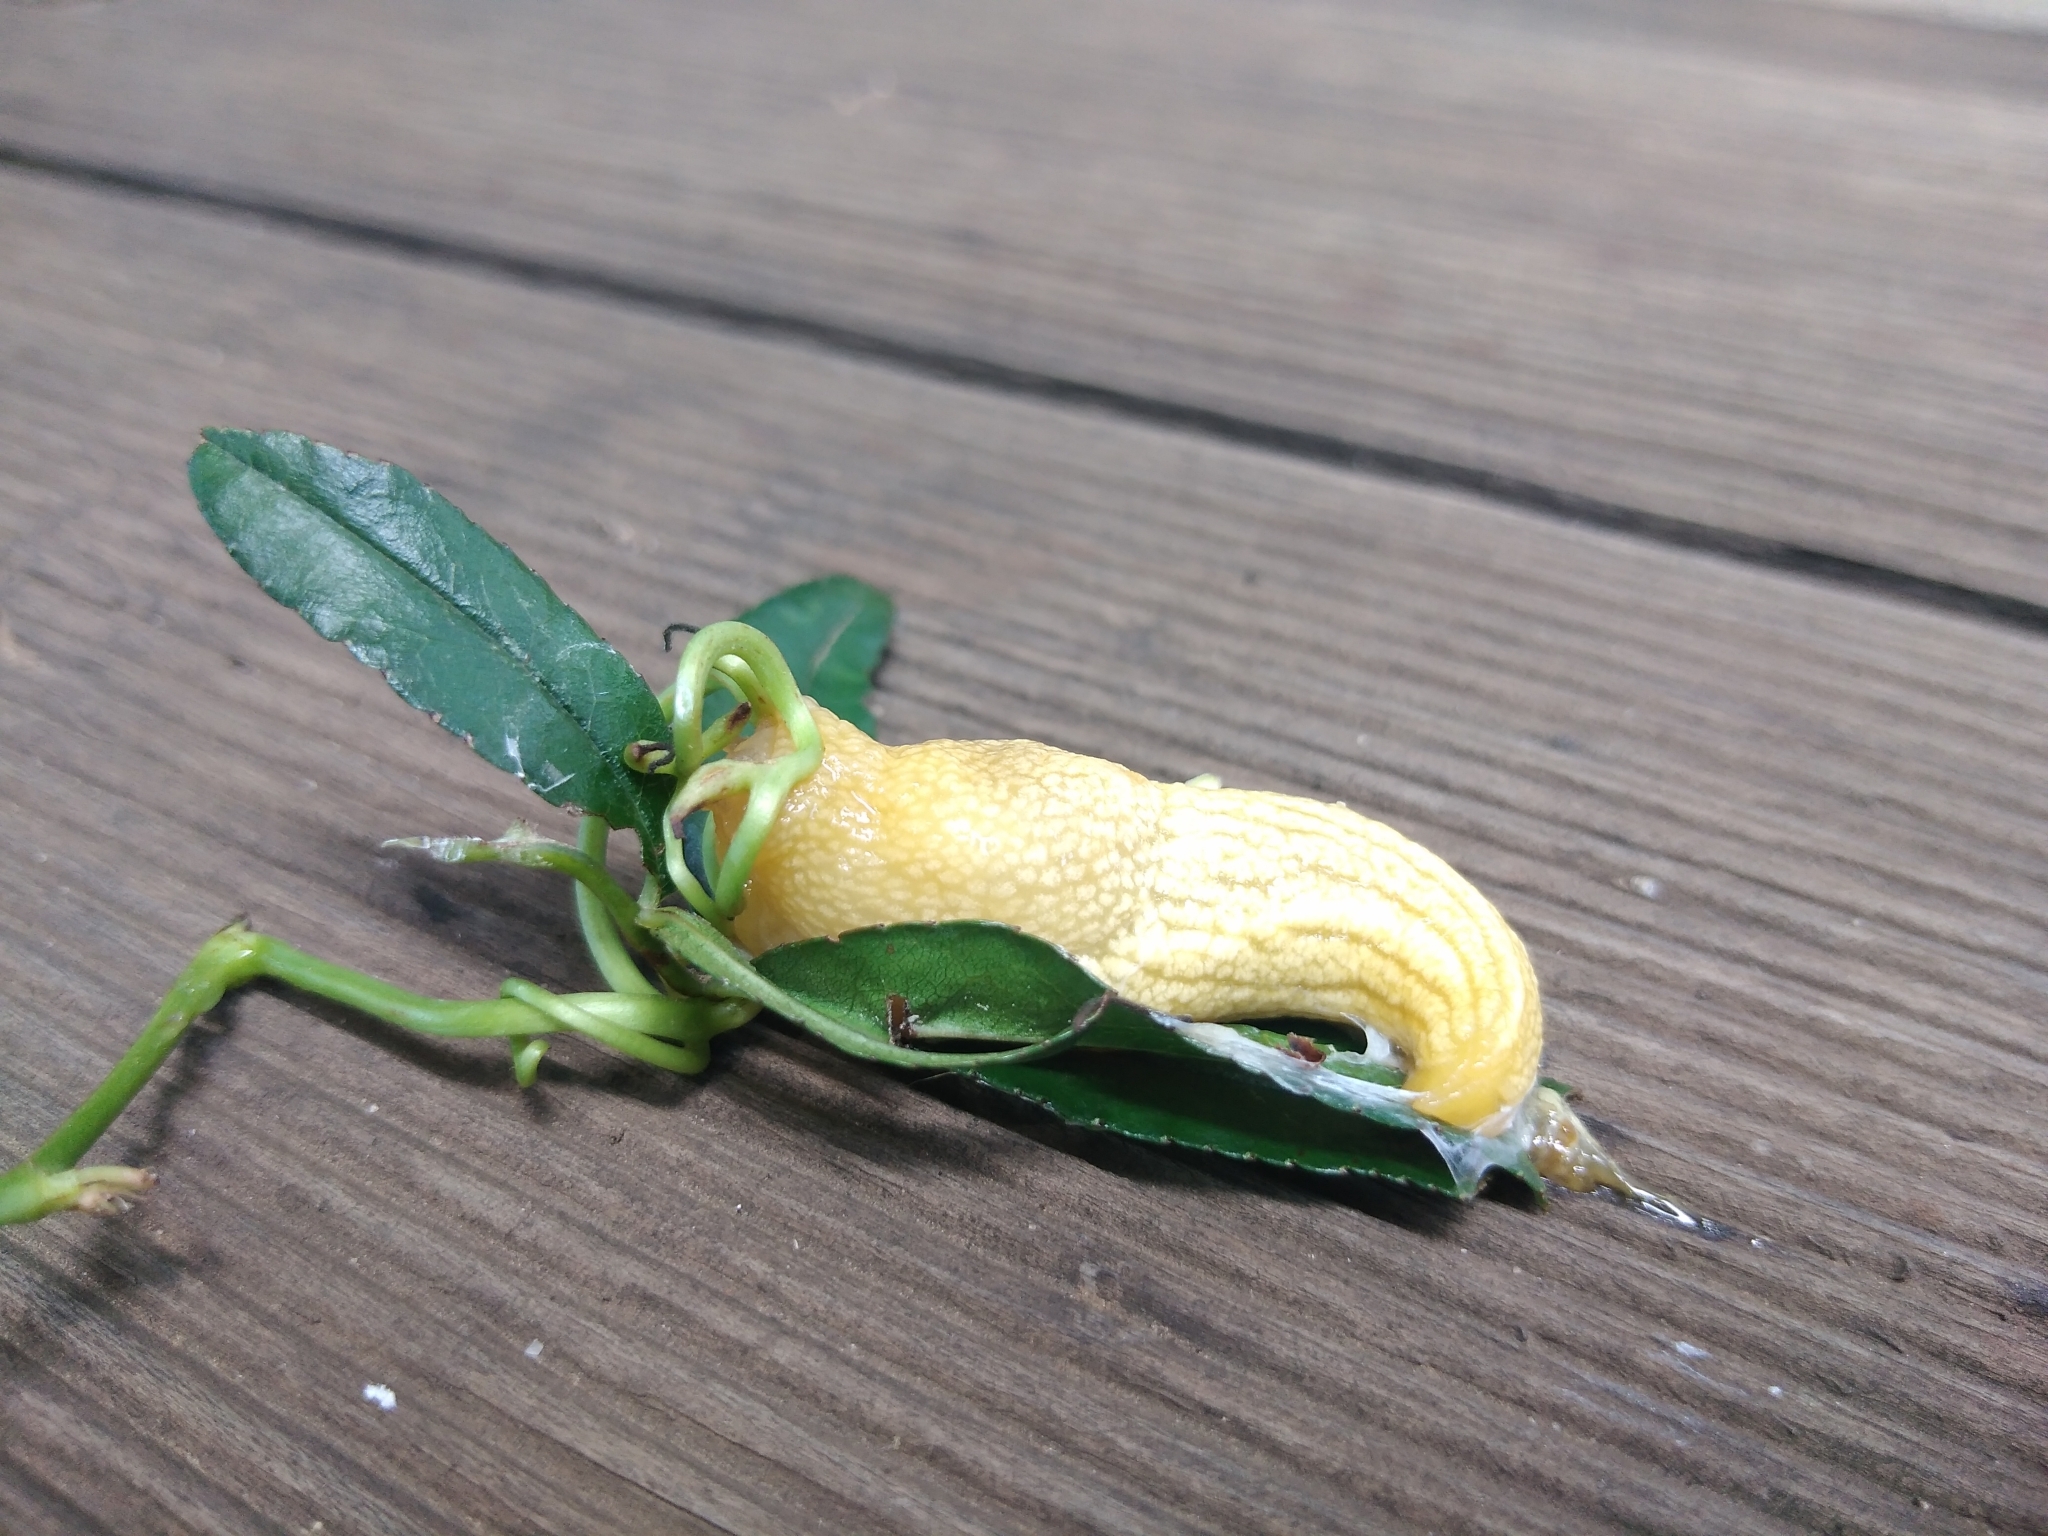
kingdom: Animalia
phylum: Mollusca
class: Gastropoda
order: Stylommatophora
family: Urocyclidae
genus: Elisolimax
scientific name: Elisolimax flavescens
